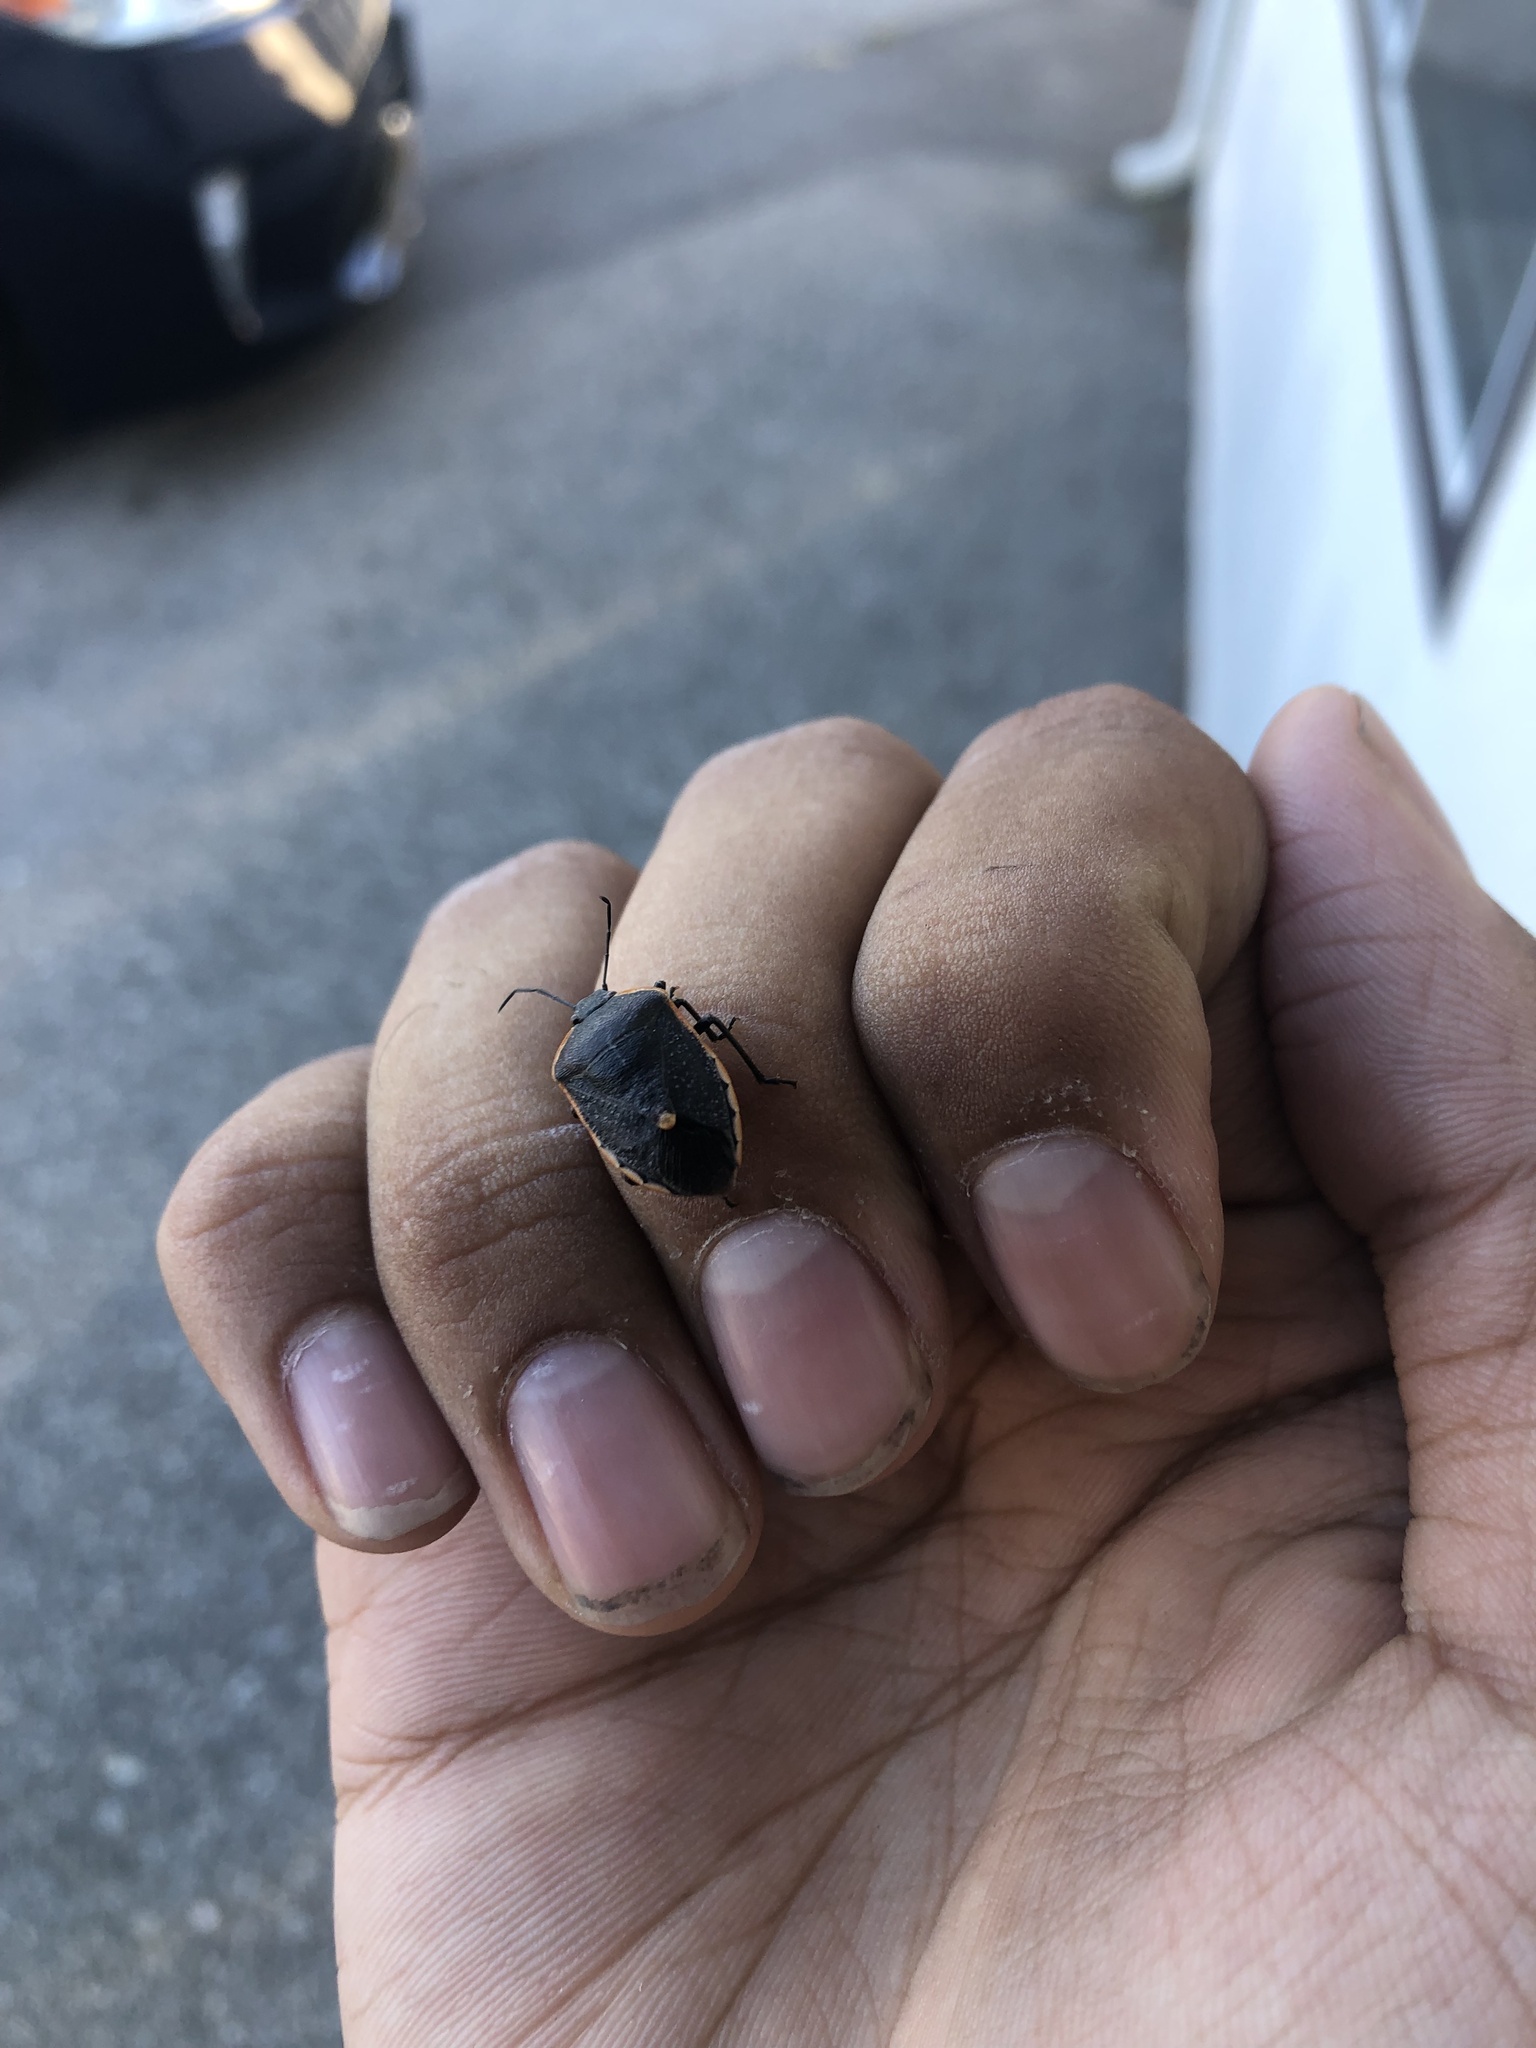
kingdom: Animalia
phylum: Arthropoda
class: Insecta
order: Hemiptera
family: Pentatomidae
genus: Chlorochroa
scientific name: Chlorochroa ligata
